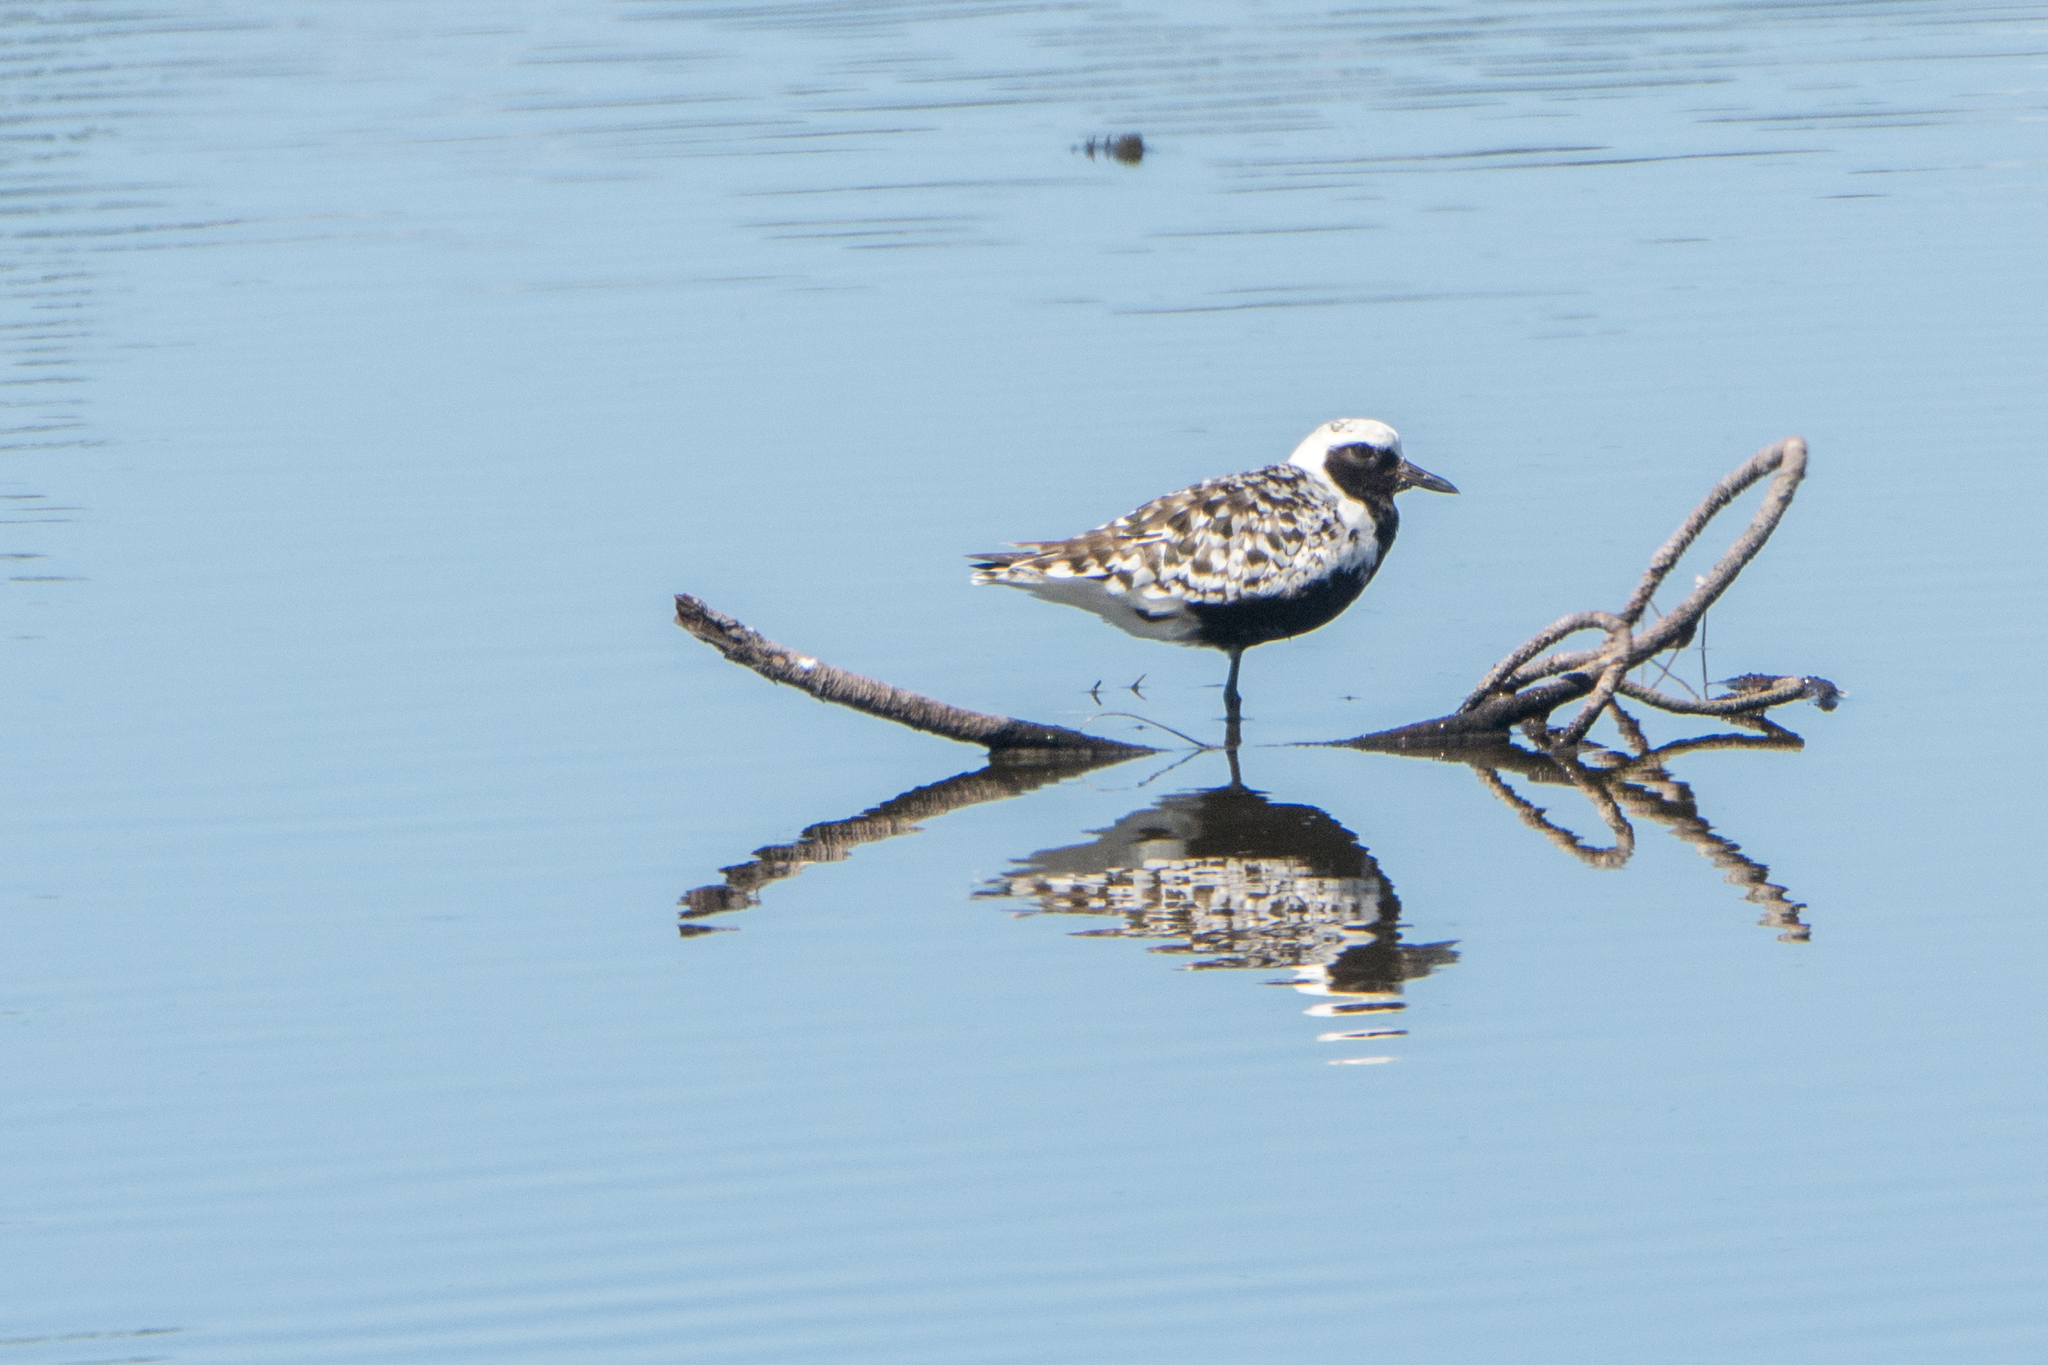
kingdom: Animalia
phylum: Chordata
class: Aves
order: Charadriiformes
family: Charadriidae
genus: Pluvialis
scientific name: Pluvialis squatarola
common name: Grey plover
